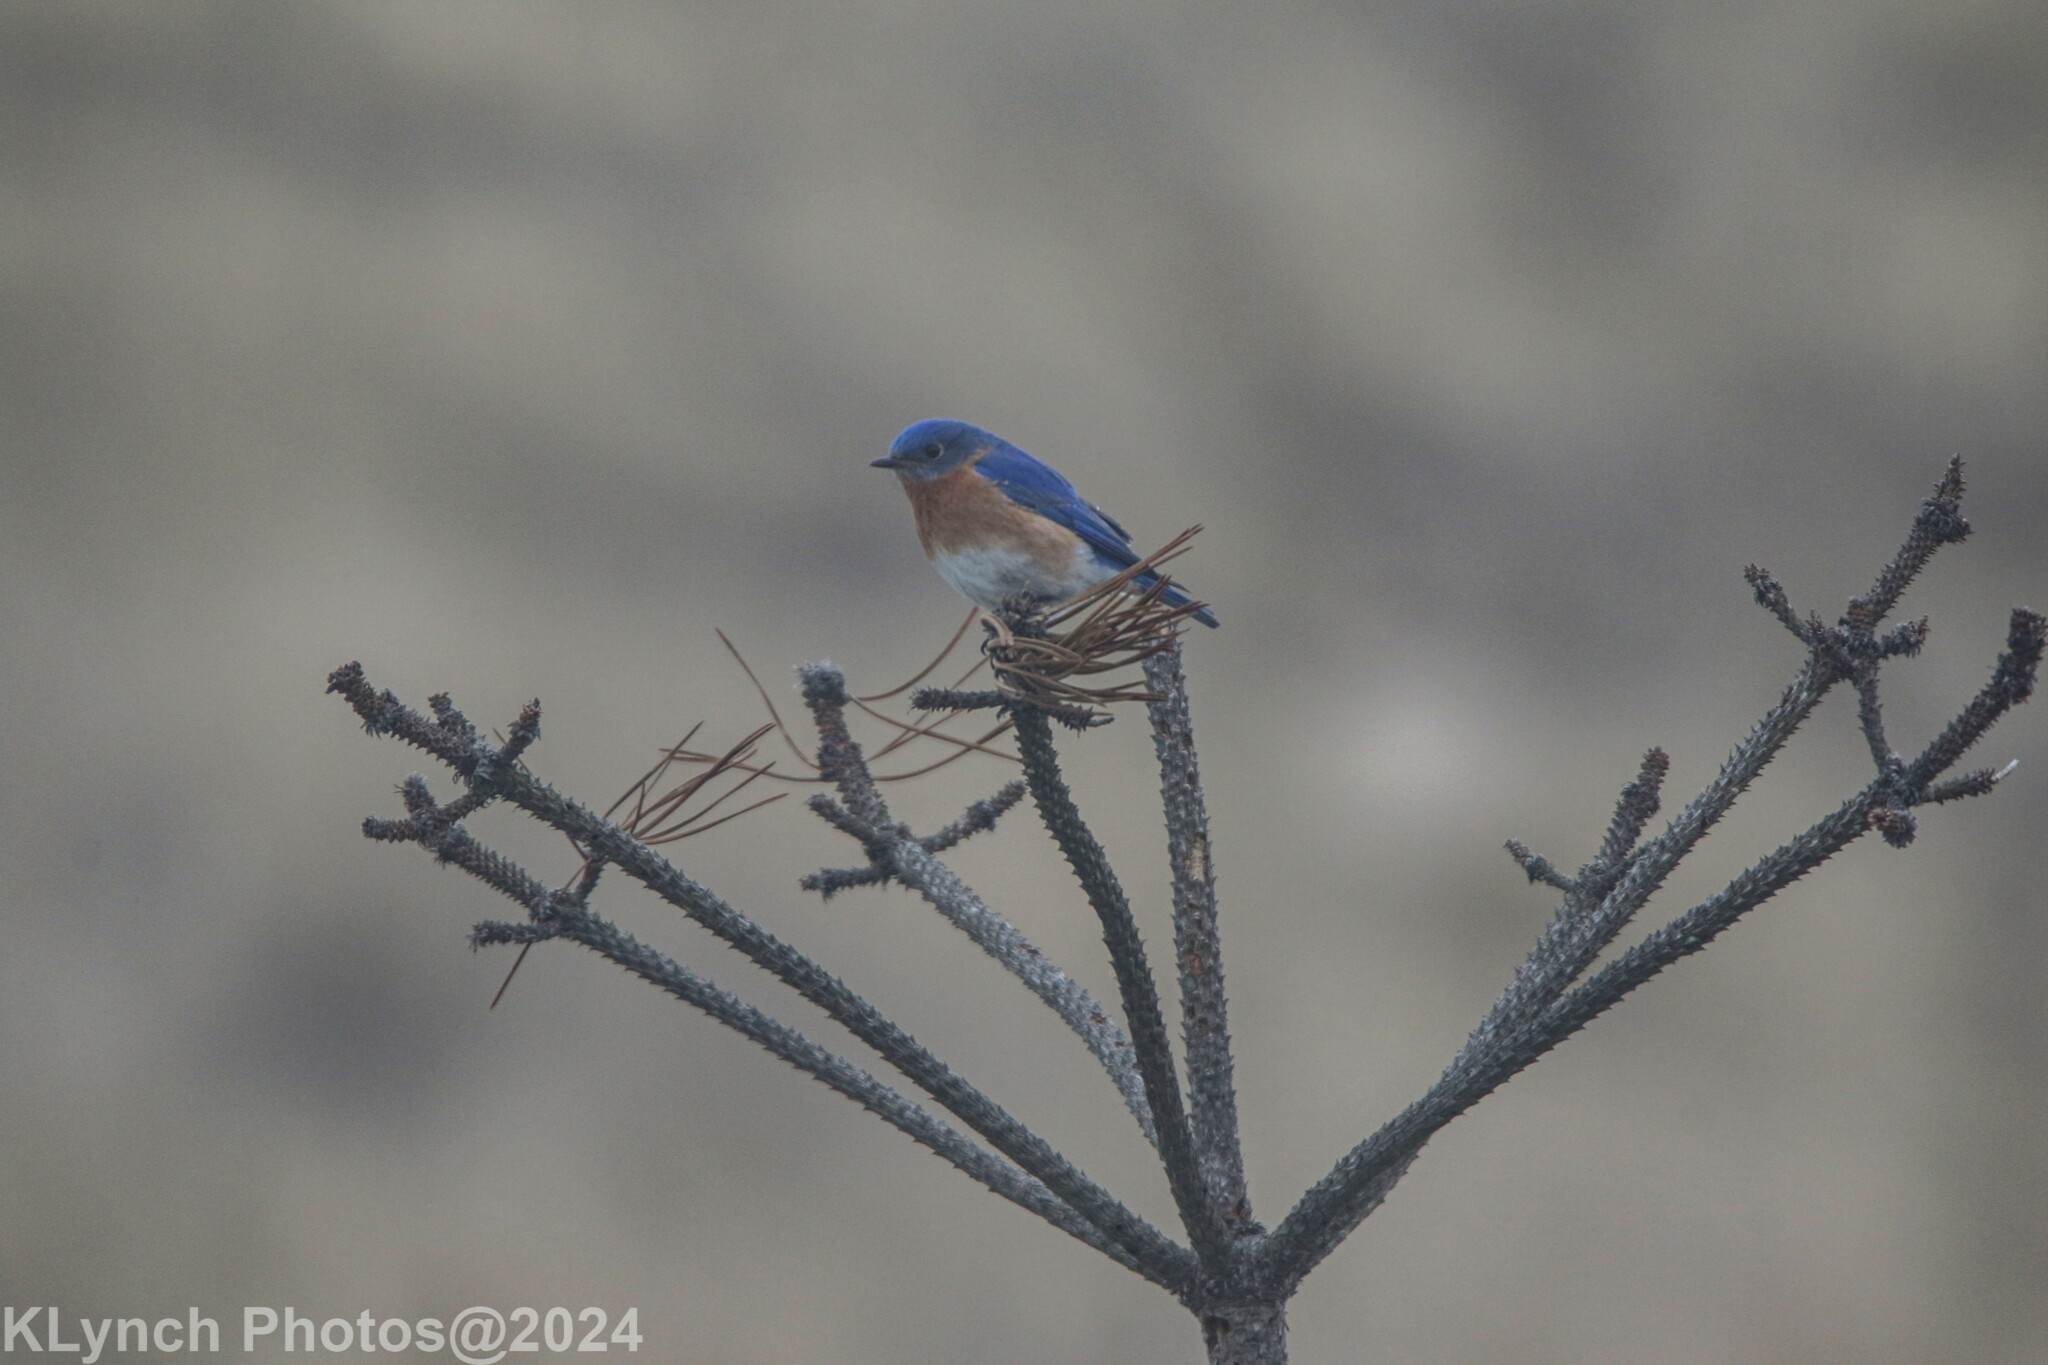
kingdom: Animalia
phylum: Chordata
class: Aves
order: Passeriformes
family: Turdidae
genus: Sialia
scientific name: Sialia sialis
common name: Eastern bluebird
